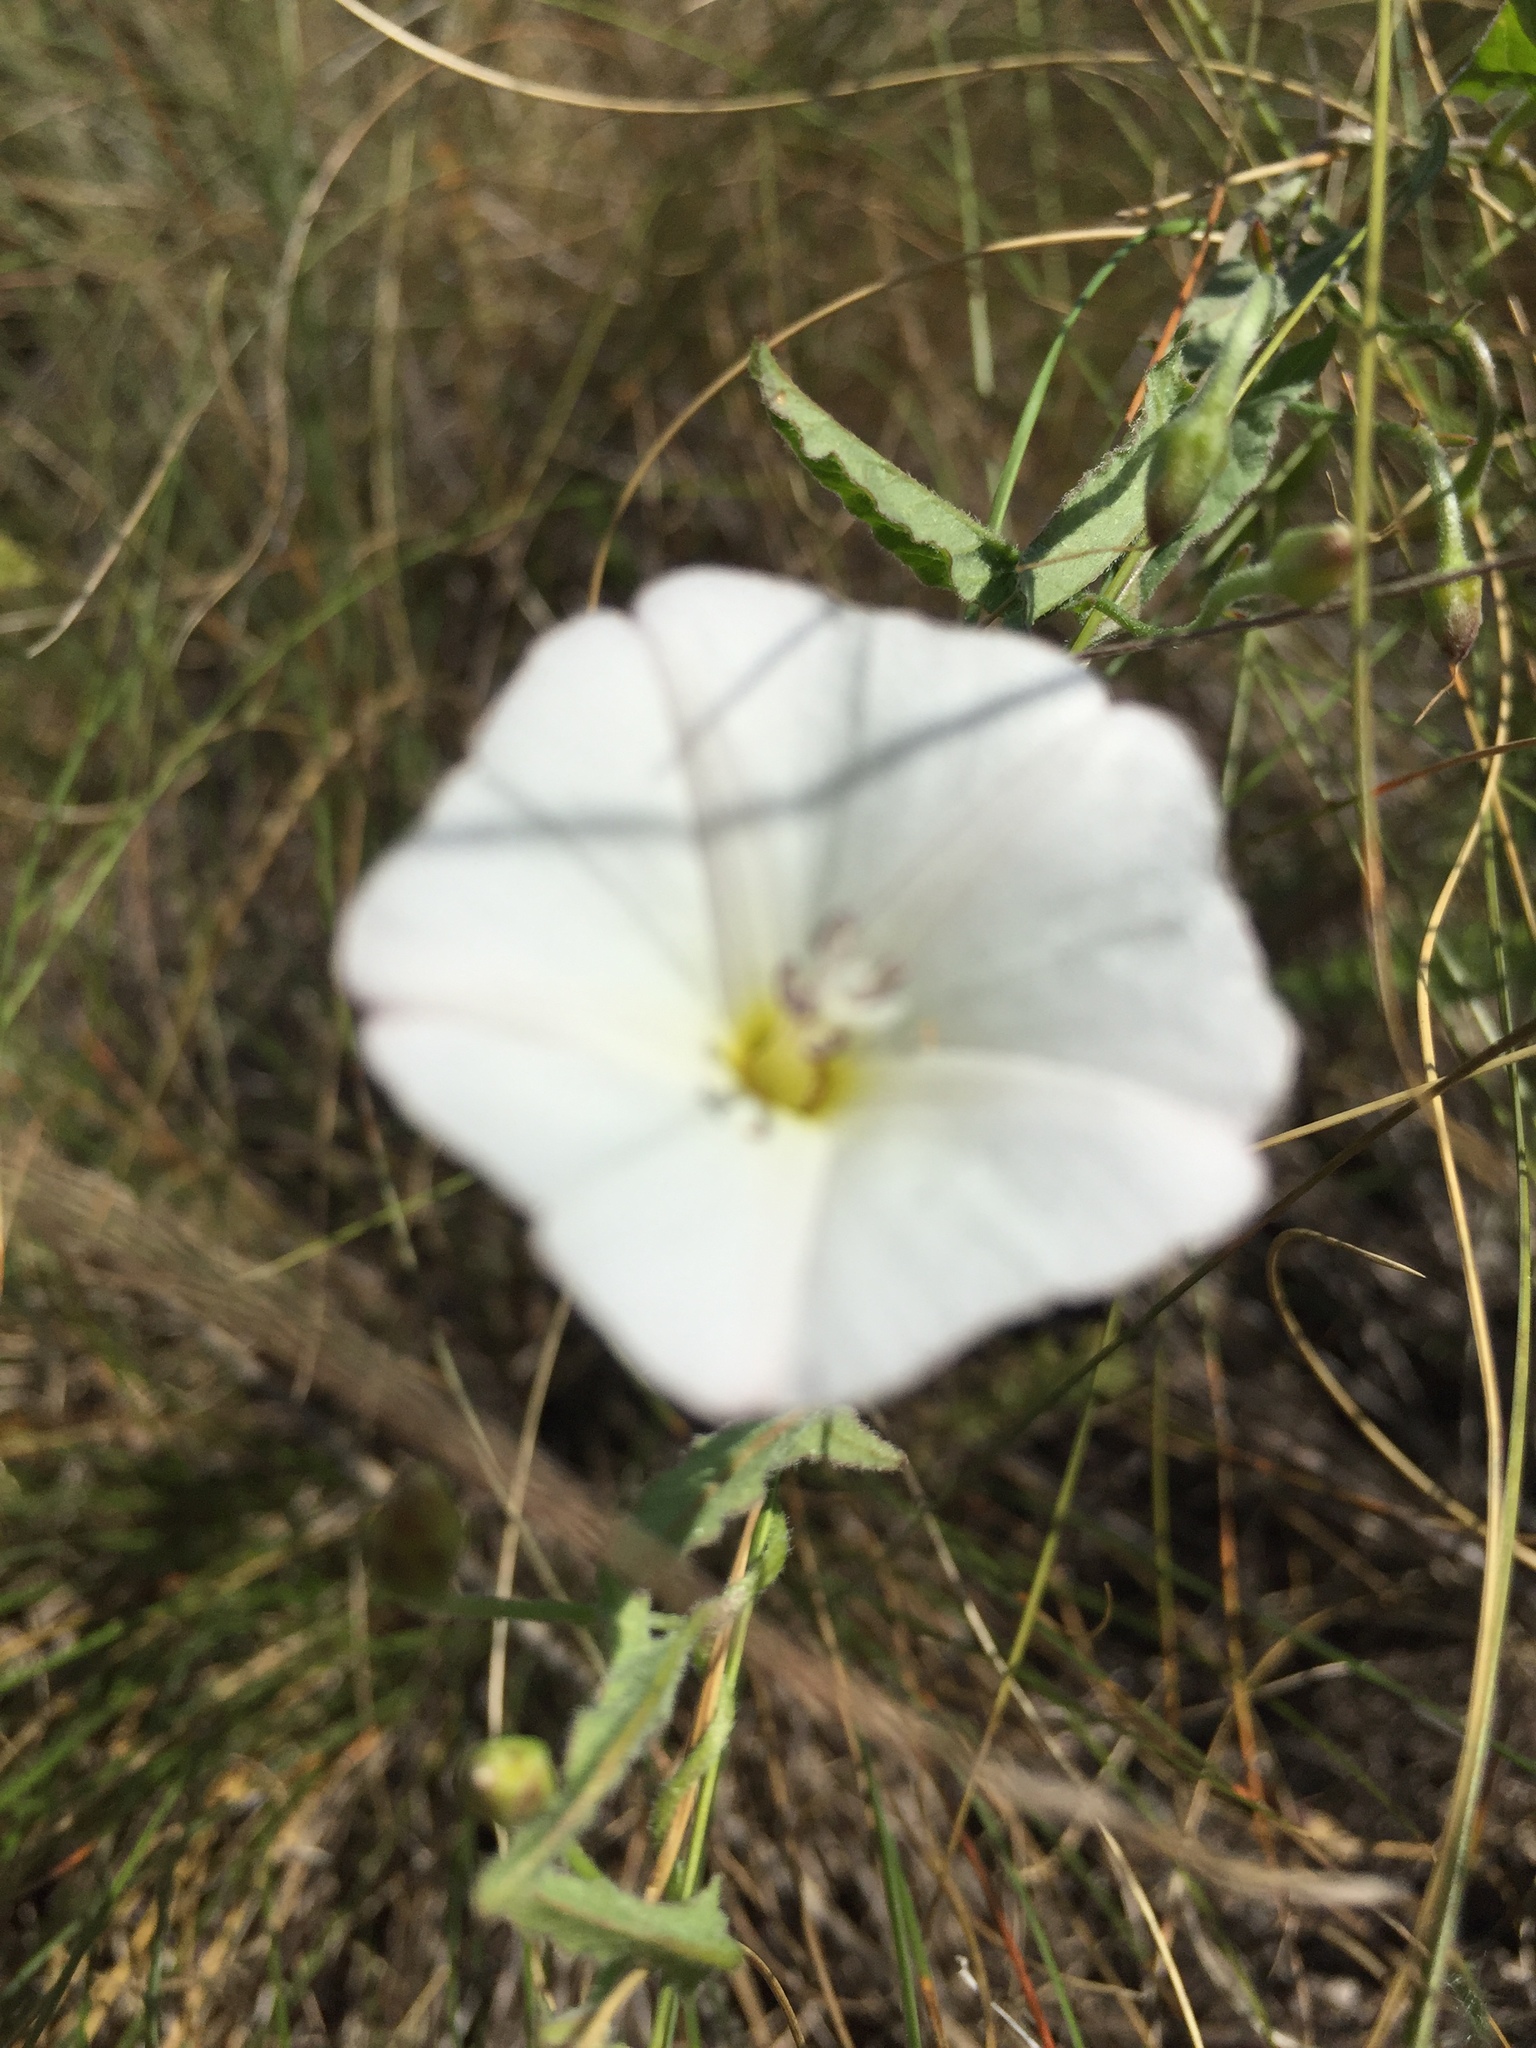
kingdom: Plantae
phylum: Tracheophyta
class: Magnoliopsida
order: Solanales
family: Convolvulaceae
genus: Convolvulus
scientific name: Convolvulus arvensis
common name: Field bindweed
